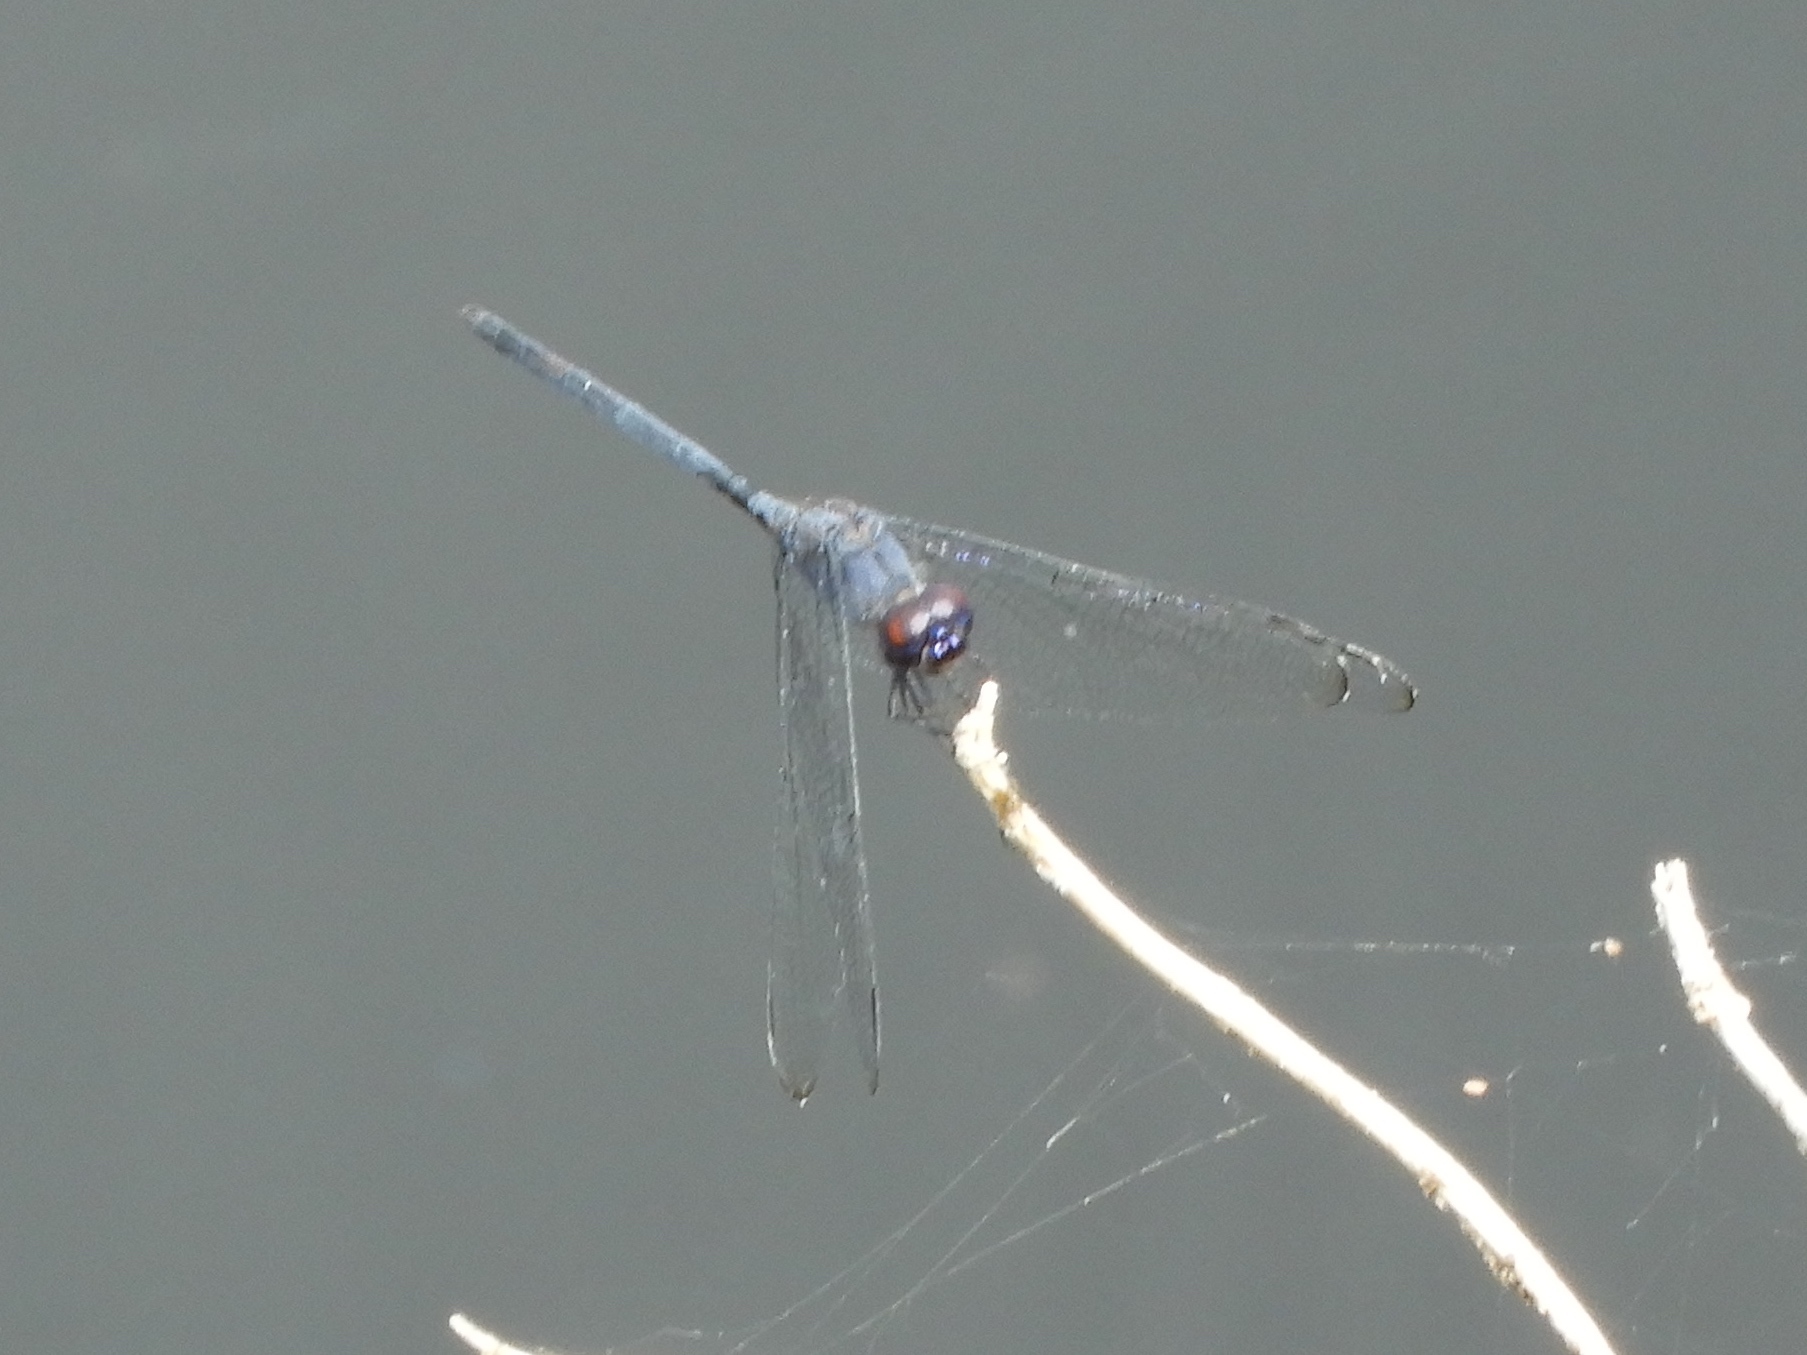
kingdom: Animalia
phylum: Arthropoda
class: Insecta
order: Odonata
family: Libellulidae
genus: Dythemis
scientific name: Dythemis nigrescens
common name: Black setwing
